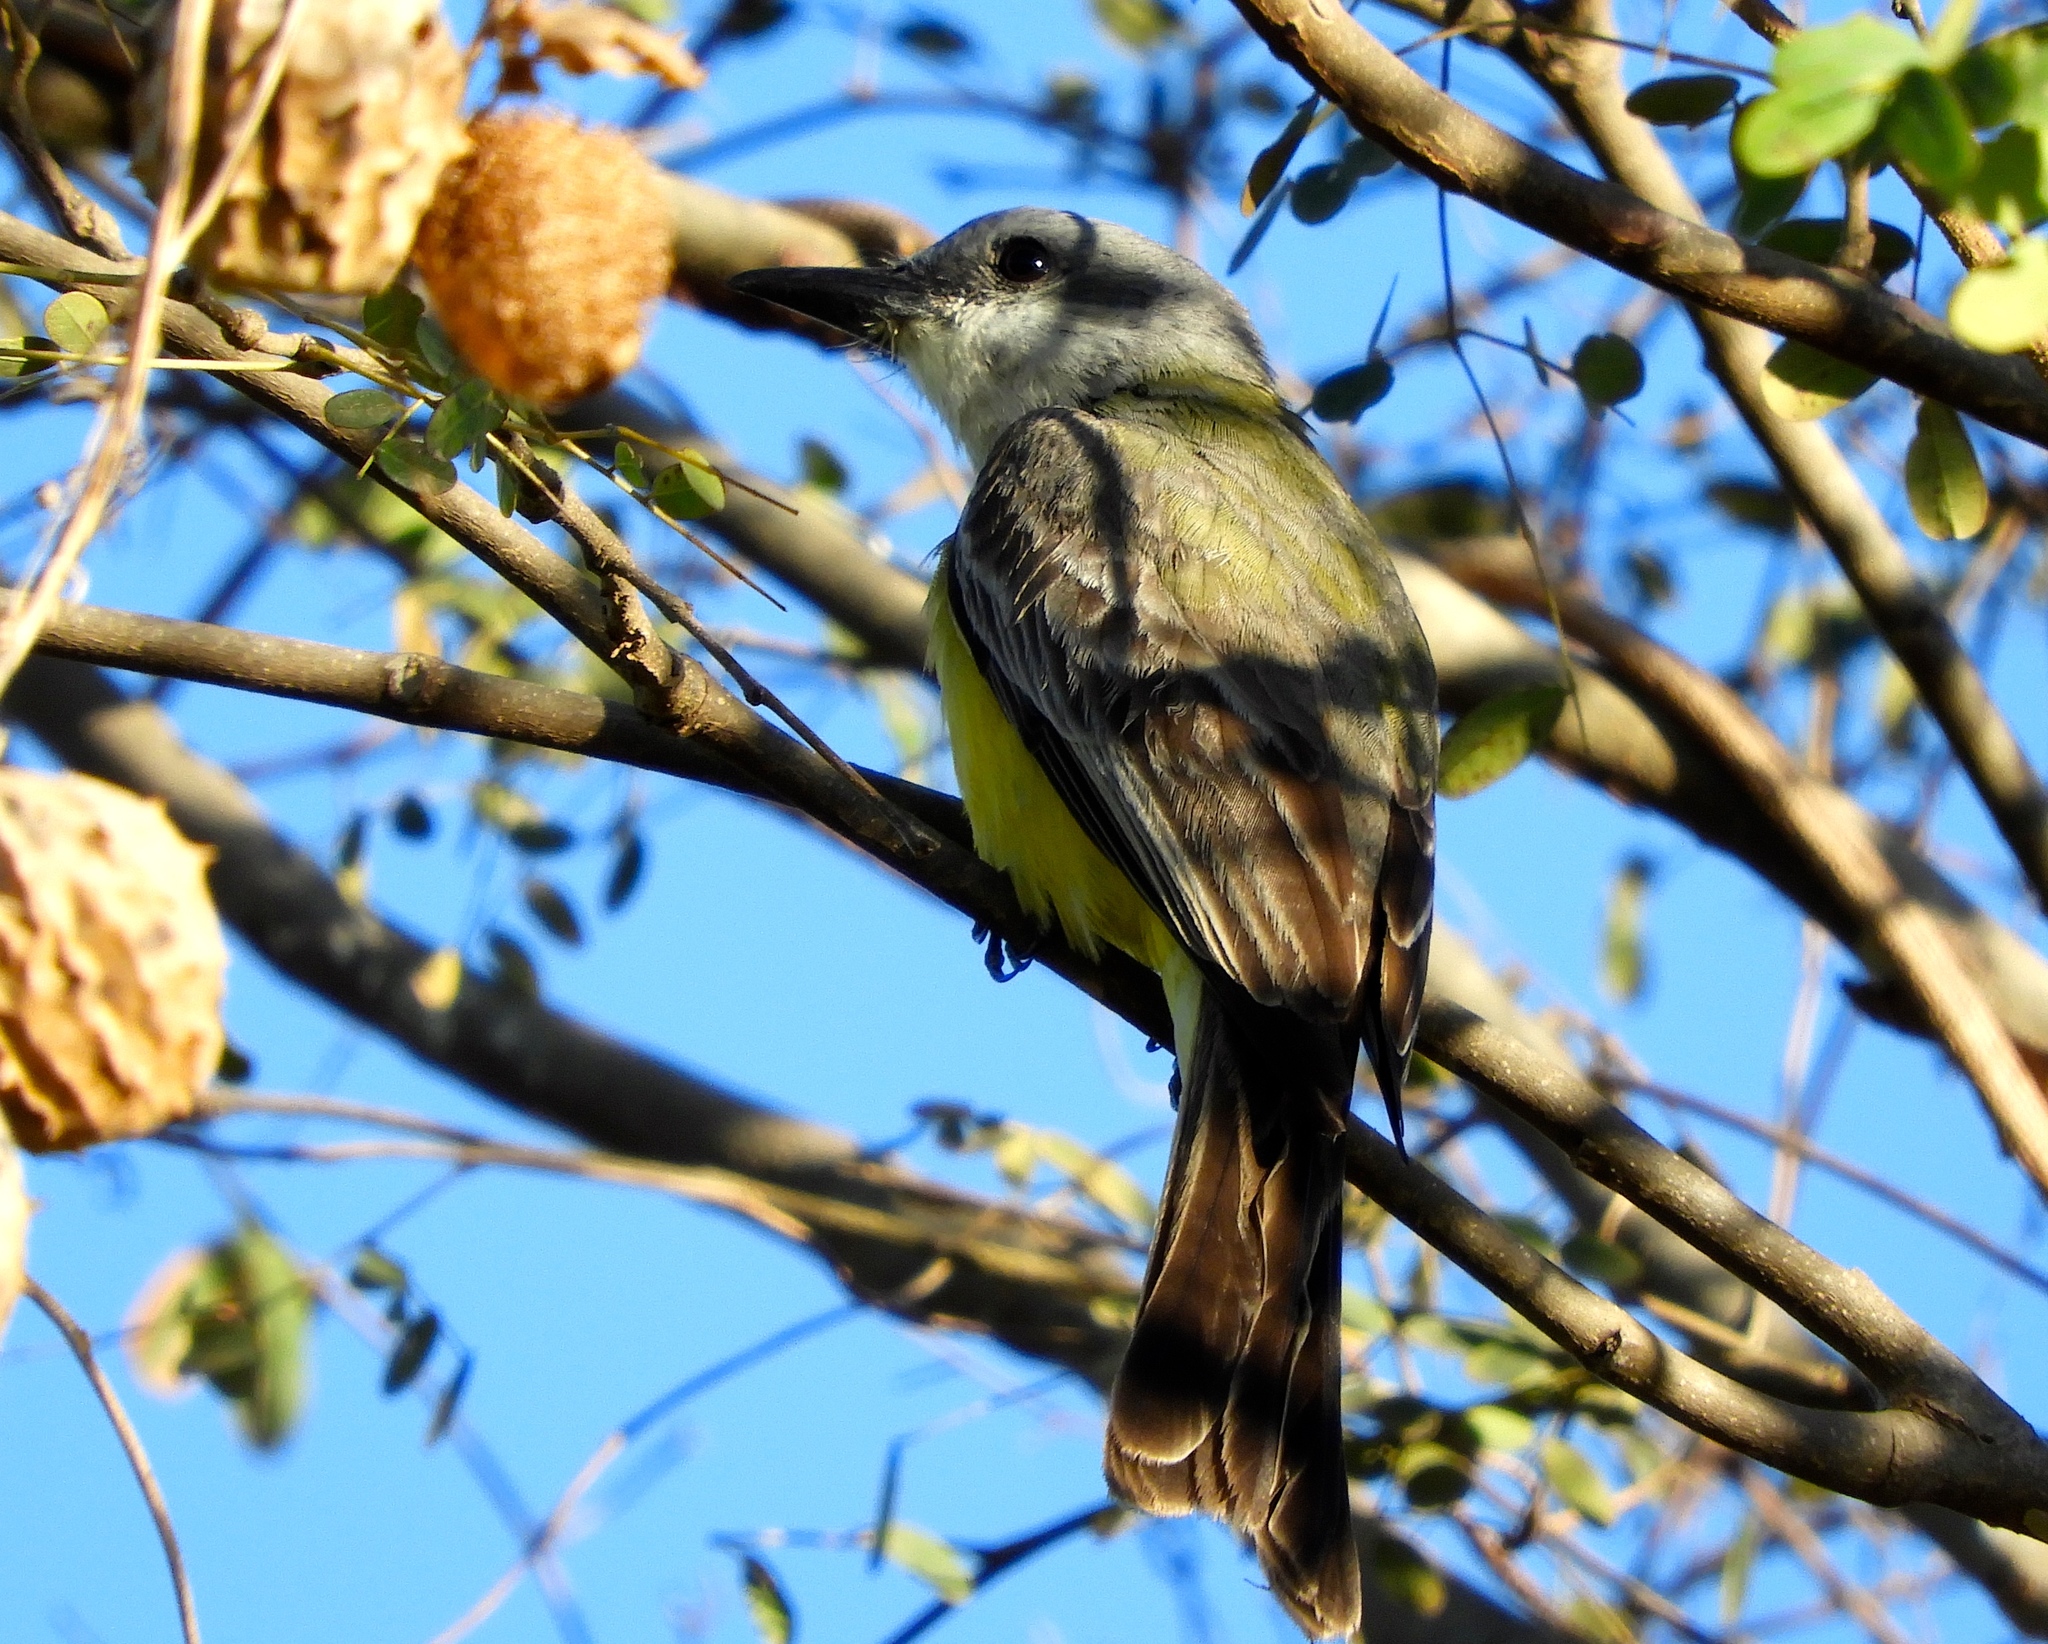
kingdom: Animalia
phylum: Chordata
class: Aves
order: Passeriformes
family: Tyrannidae
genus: Tyrannus
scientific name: Tyrannus melancholicus
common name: Tropical kingbird
